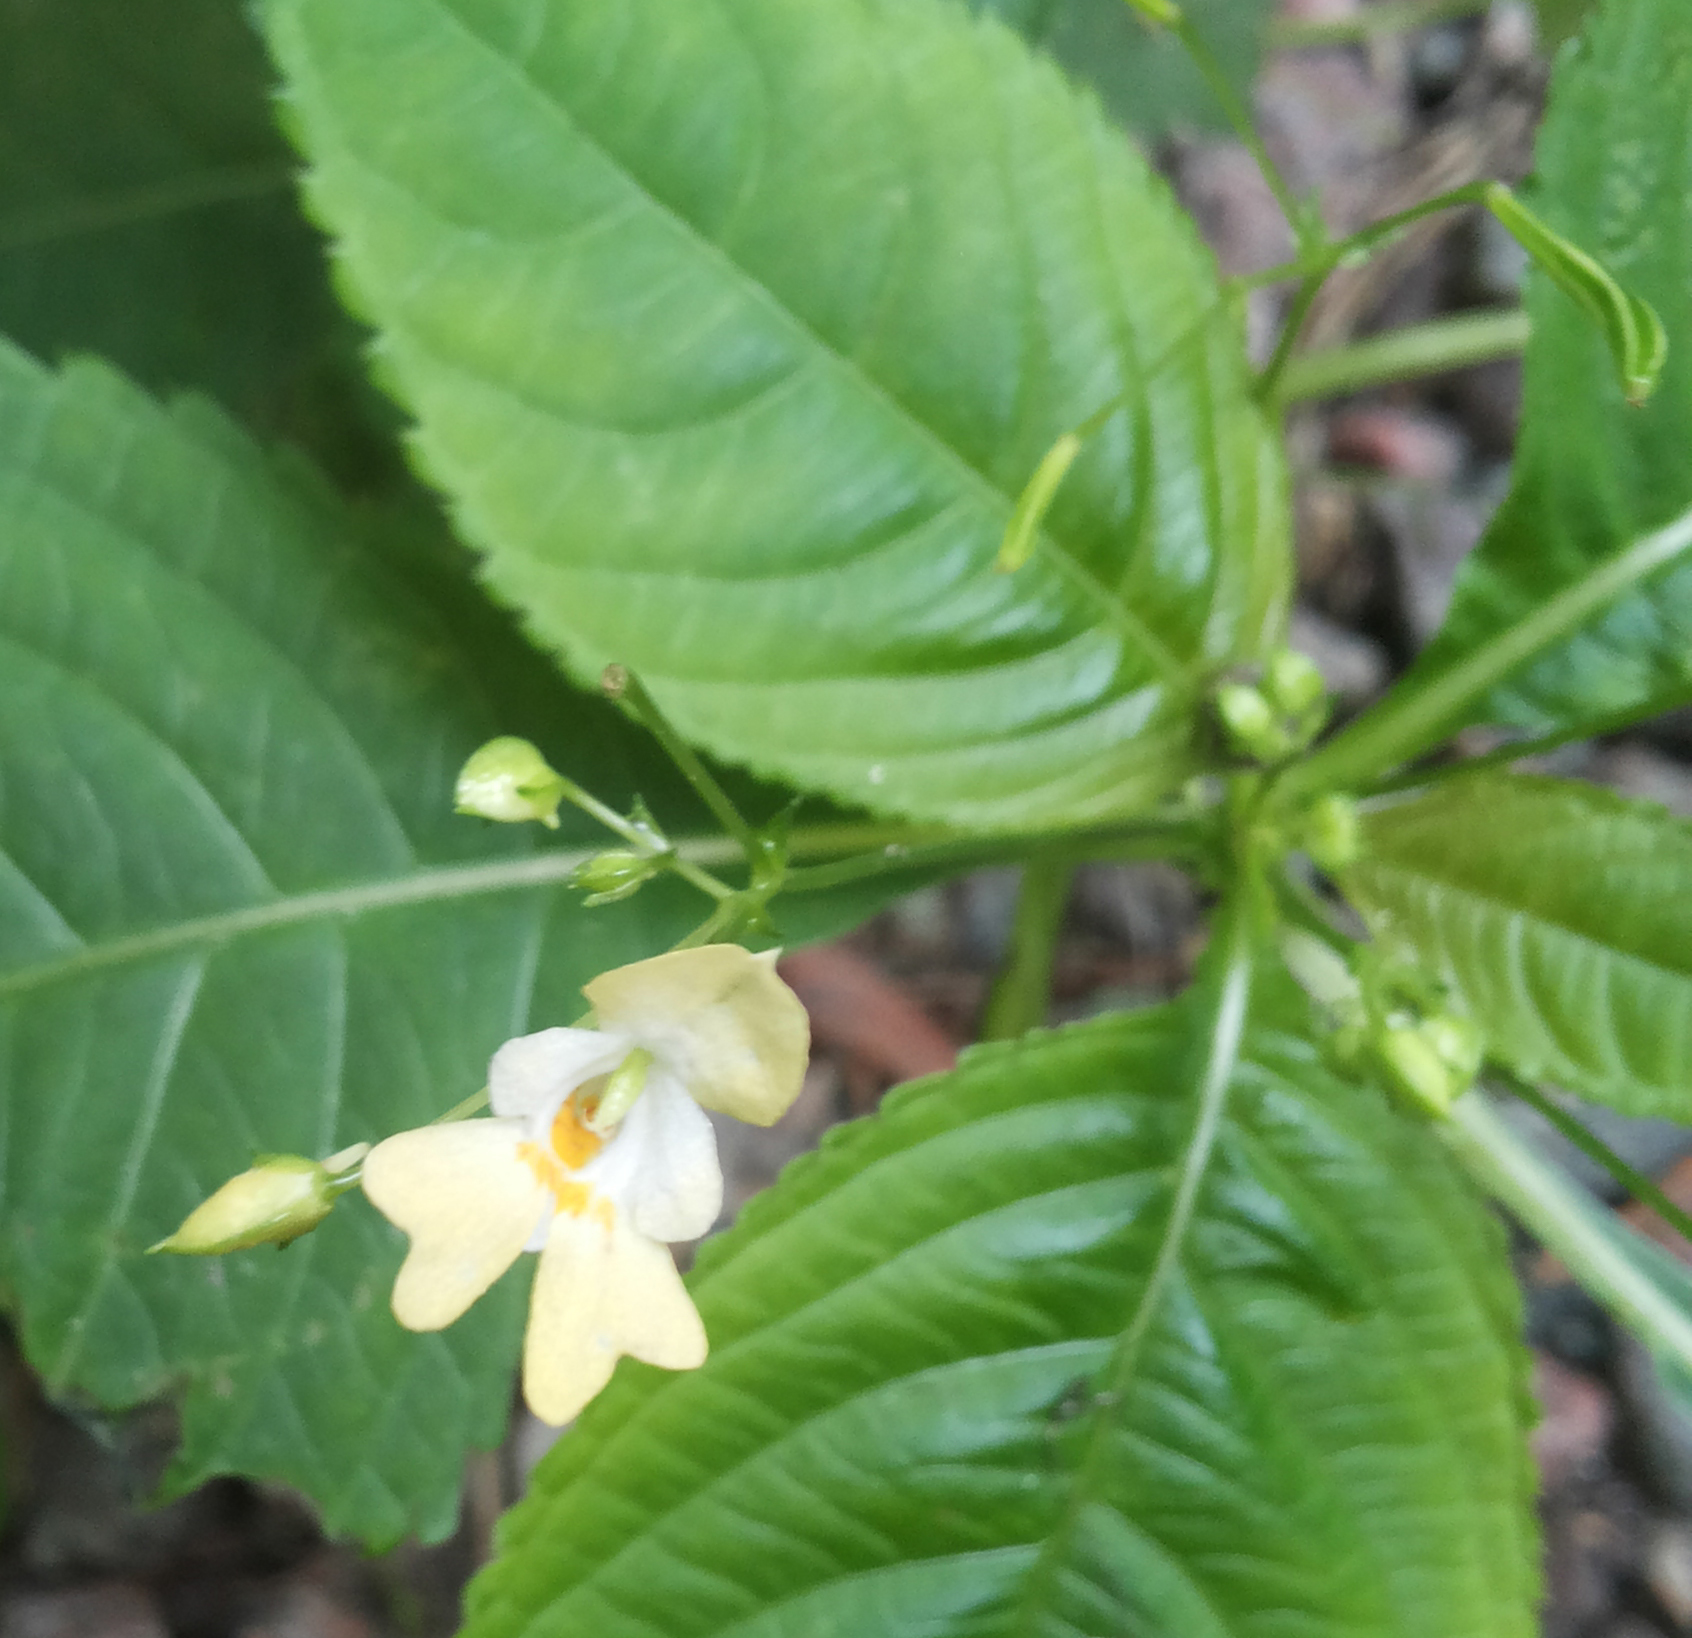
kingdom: Plantae
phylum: Tracheophyta
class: Magnoliopsida
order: Ericales
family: Balsaminaceae
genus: Impatiens
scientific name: Impatiens parviflora
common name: Small balsam
